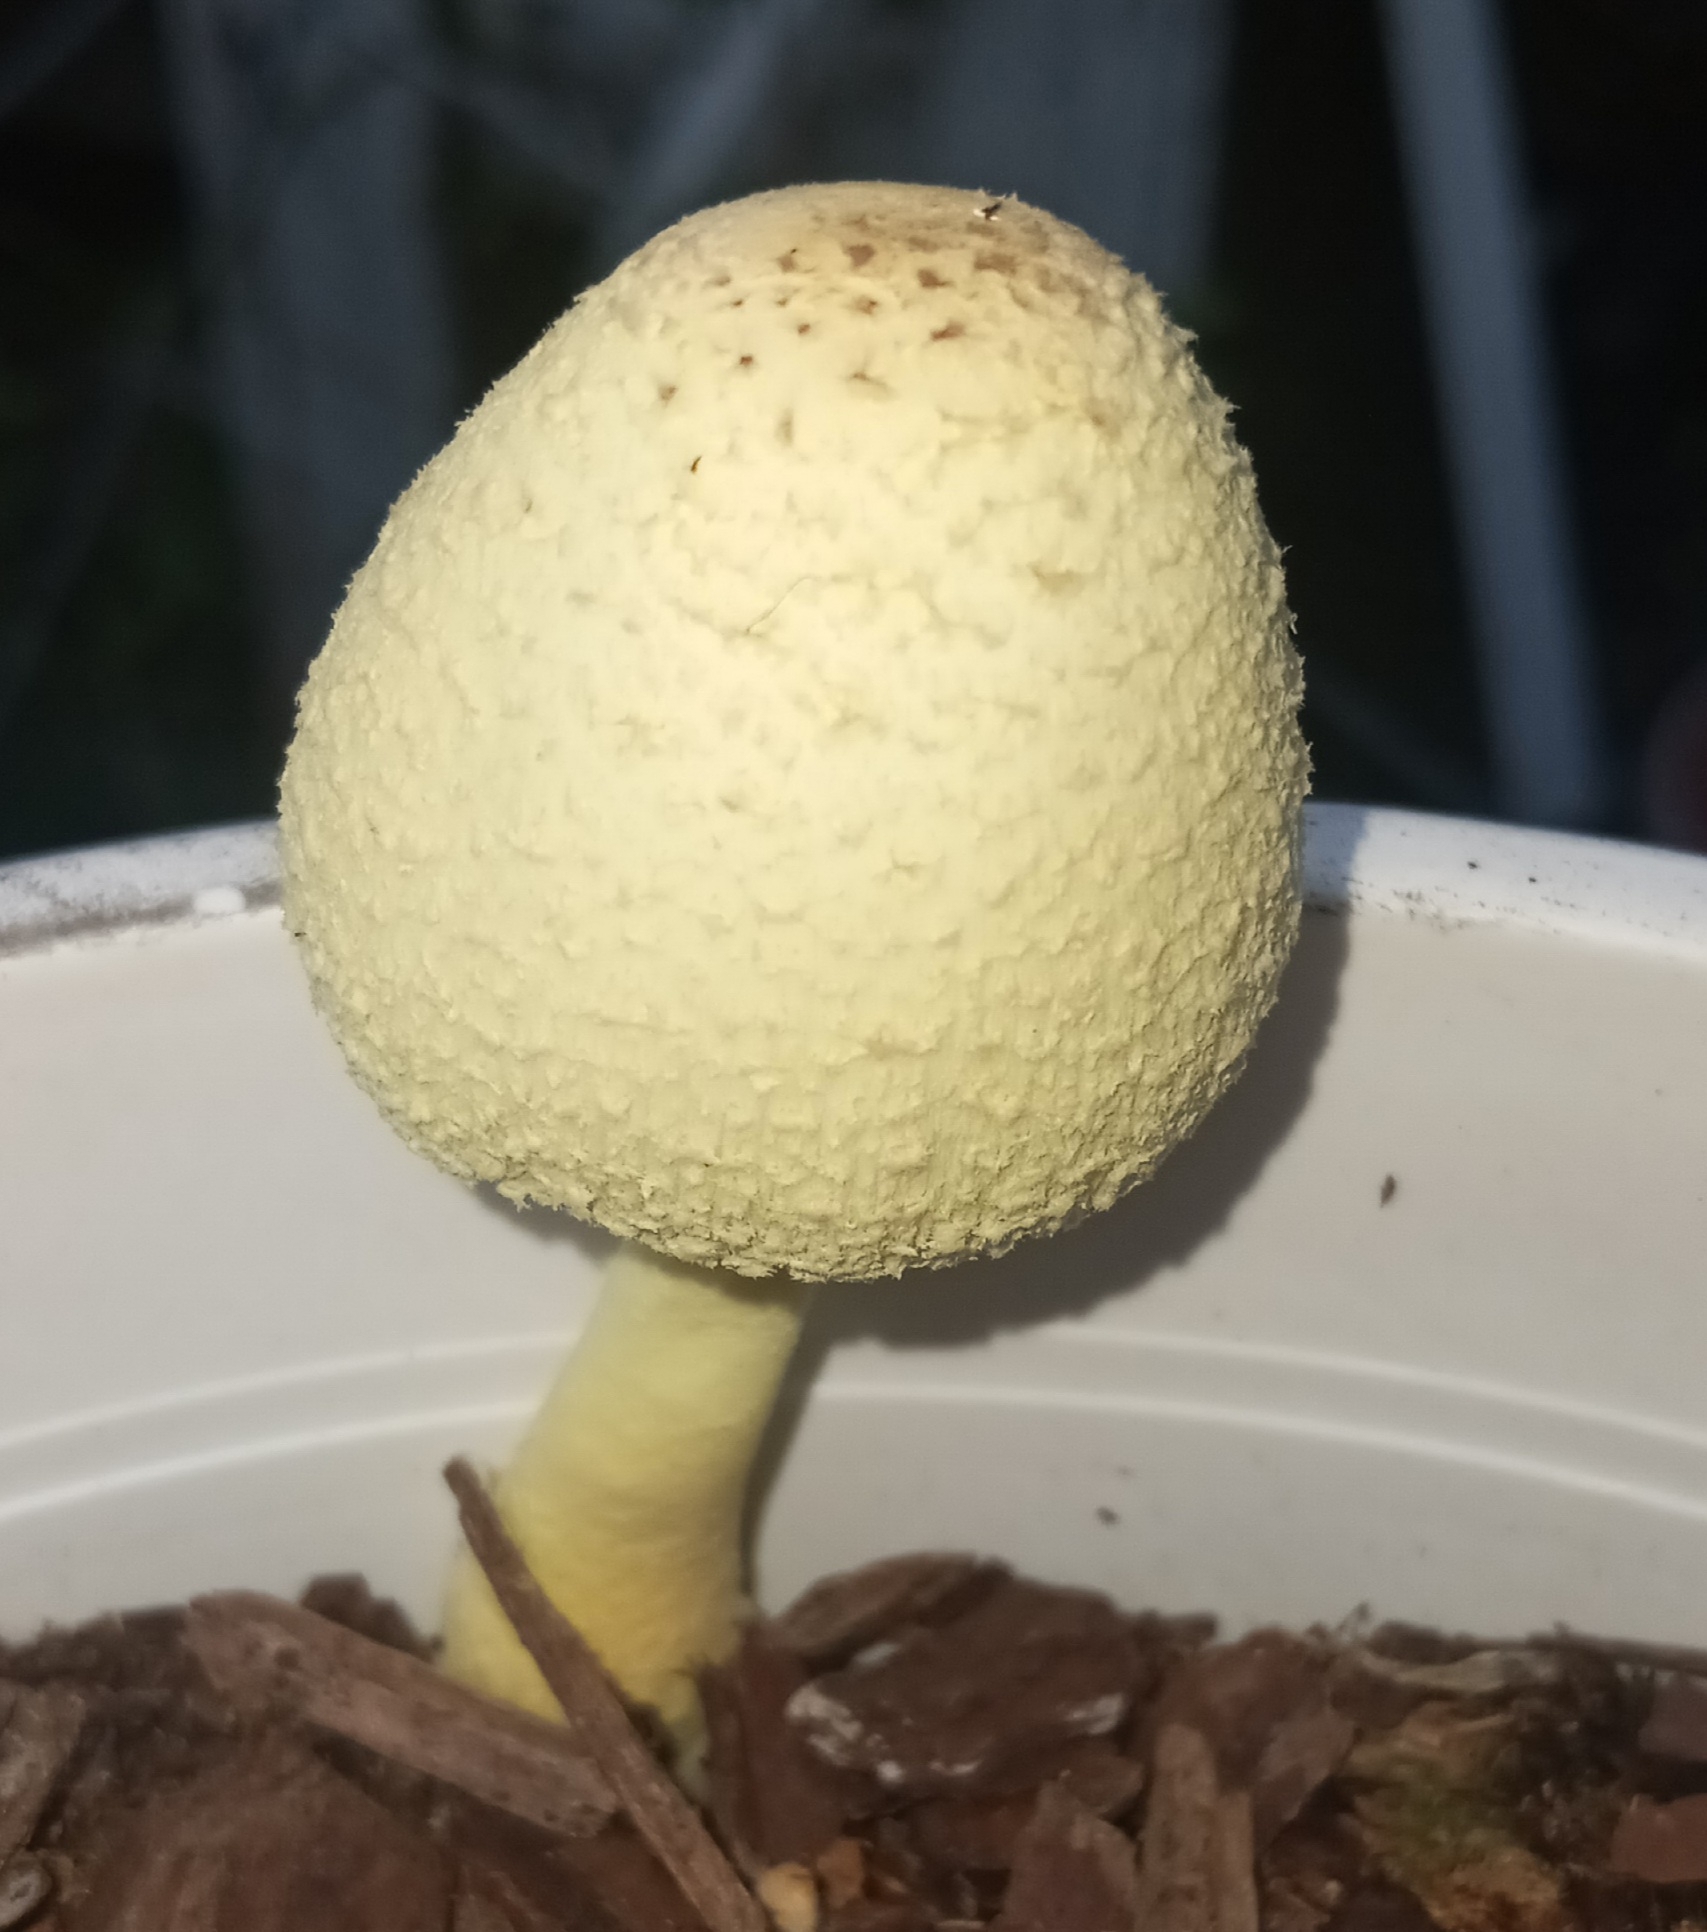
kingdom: Fungi
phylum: Basidiomycota
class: Agaricomycetes
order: Agaricales
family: Agaricaceae
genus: Leucocoprinus
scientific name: Leucocoprinus birnbaumii
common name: Plantpot dapperling
